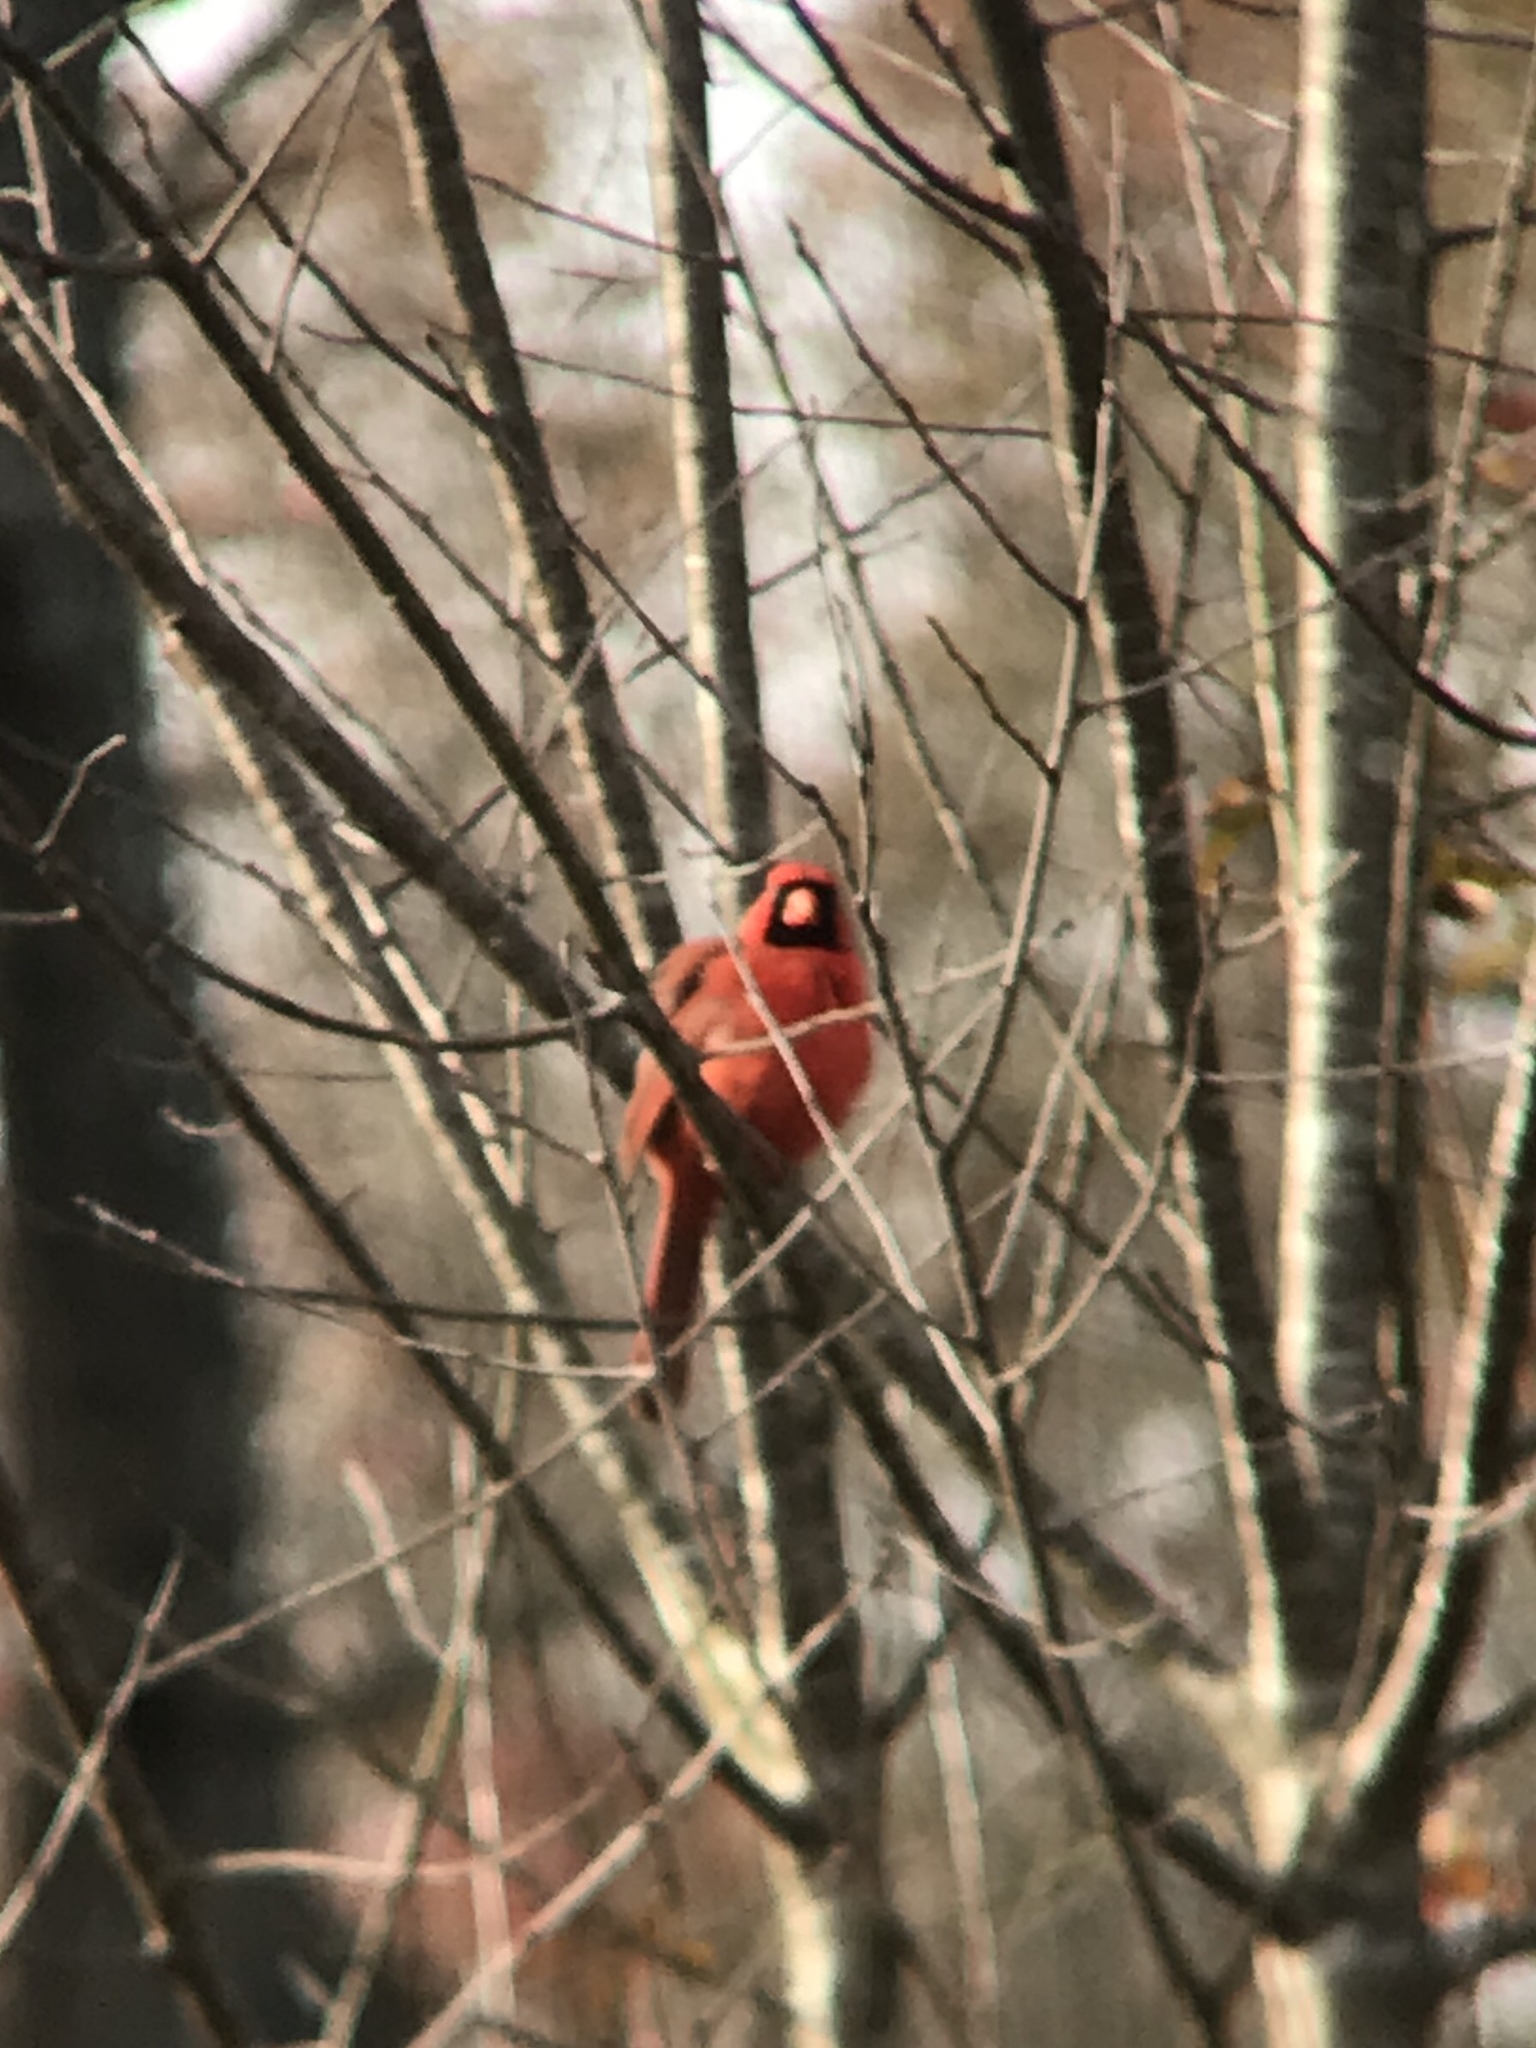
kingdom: Animalia
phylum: Chordata
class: Aves
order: Passeriformes
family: Cardinalidae
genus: Cardinalis
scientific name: Cardinalis cardinalis
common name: Northern cardinal
